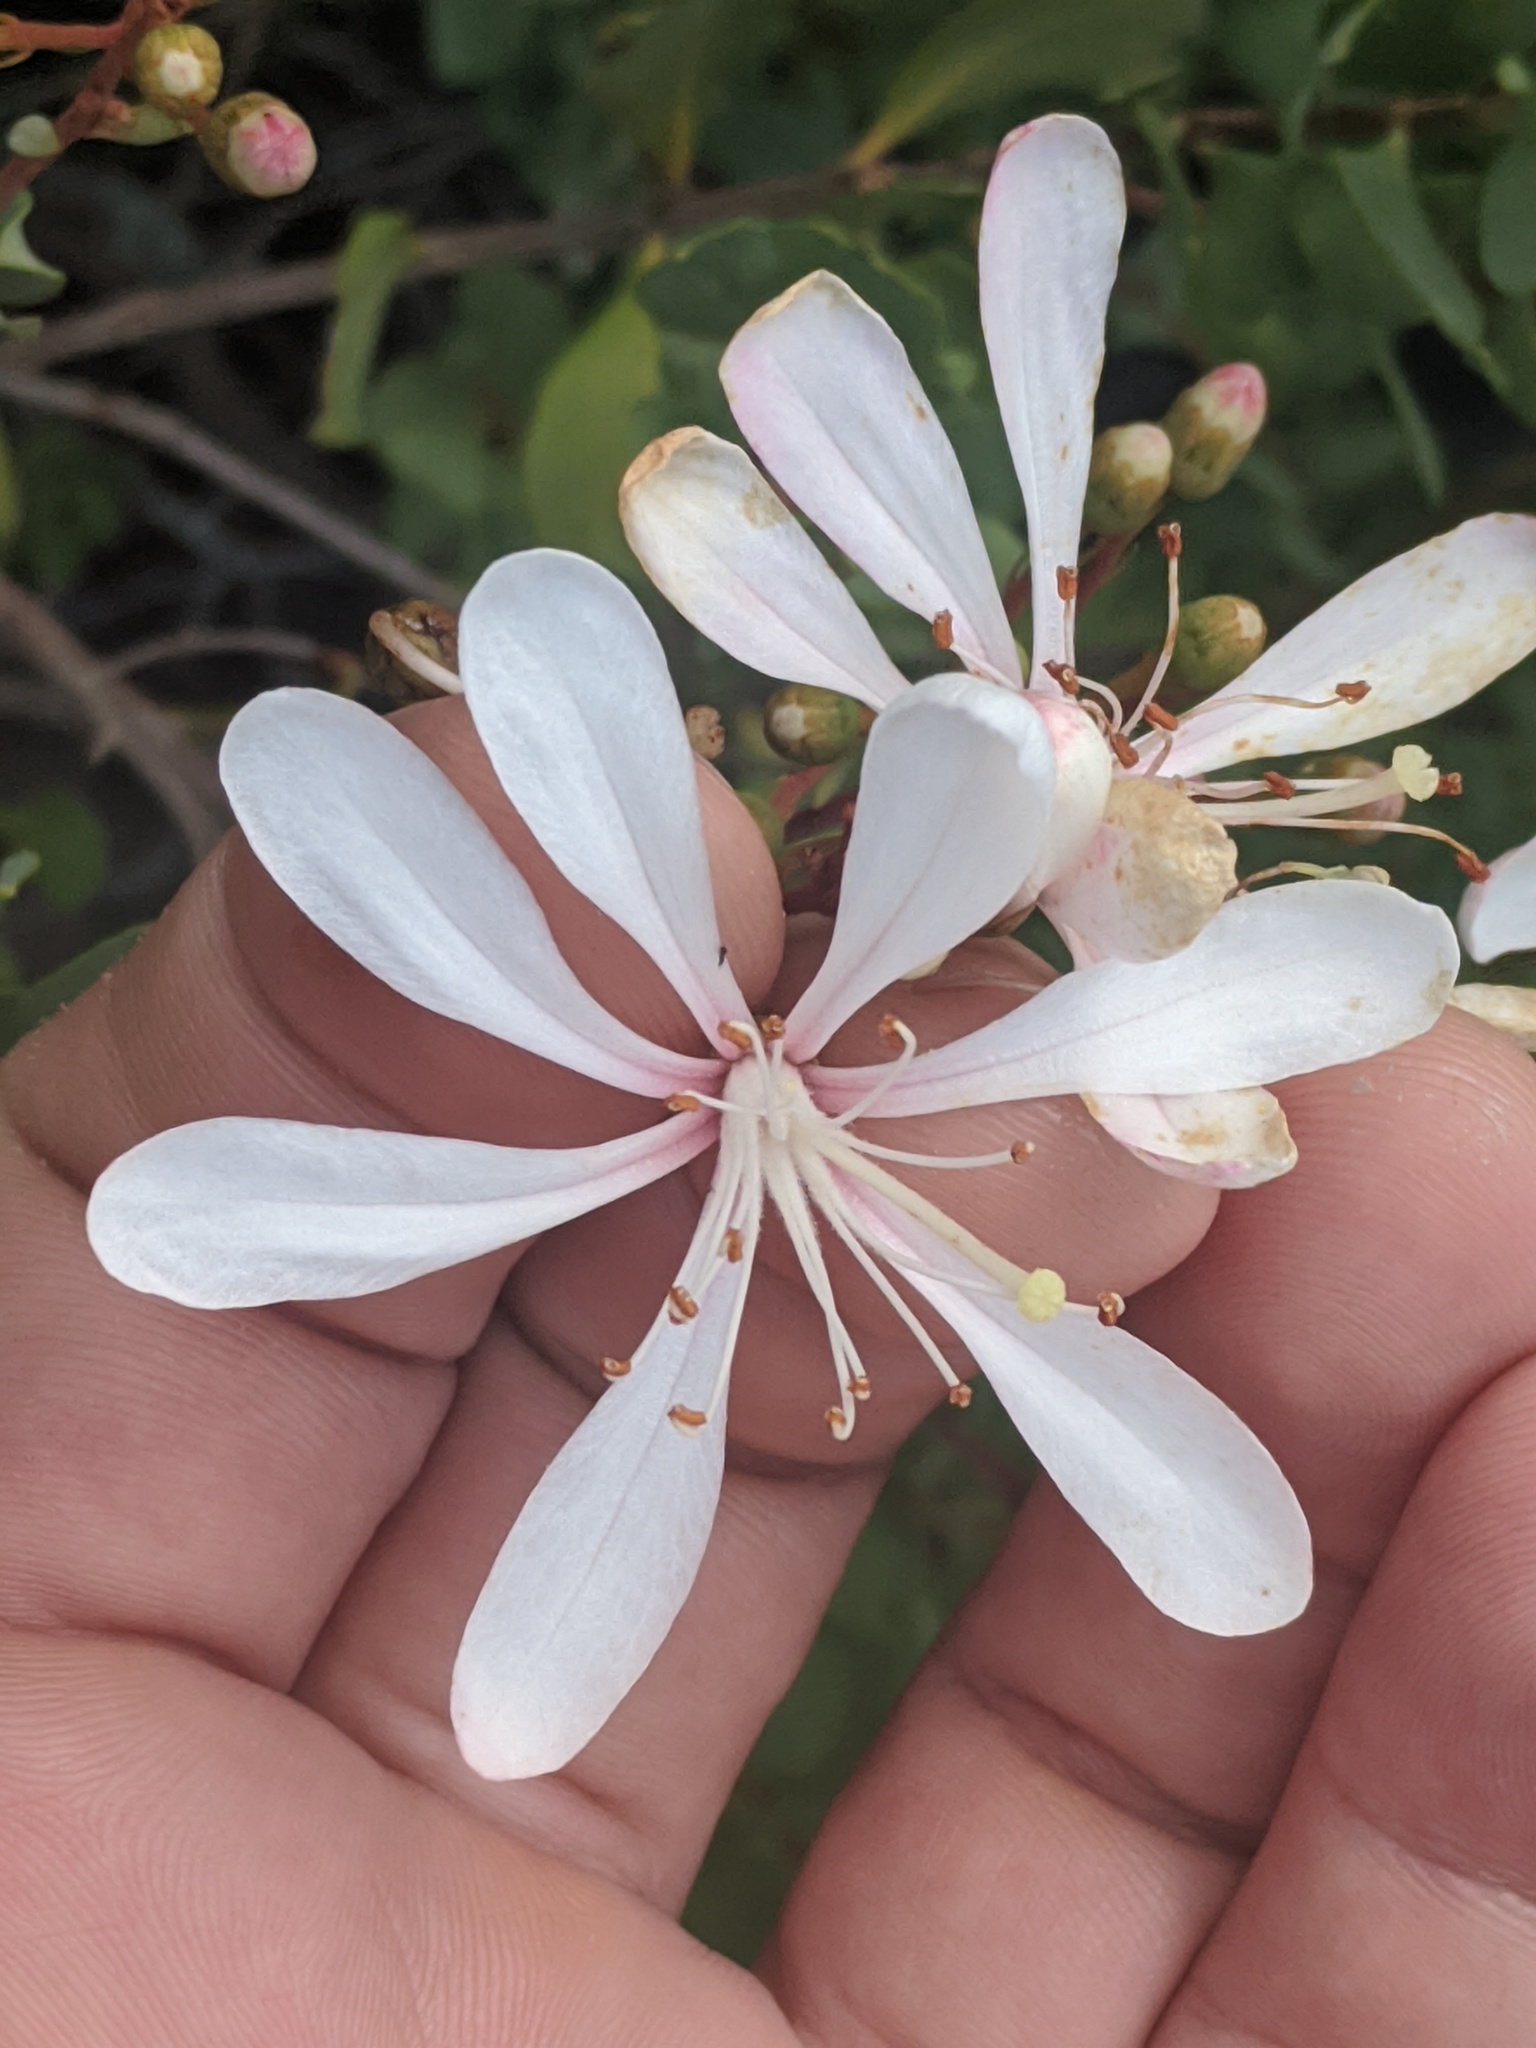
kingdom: Plantae
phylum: Tracheophyta
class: Magnoliopsida
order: Ericales
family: Ericaceae
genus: Bejaria
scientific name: Bejaria racemosa
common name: Tarflower
